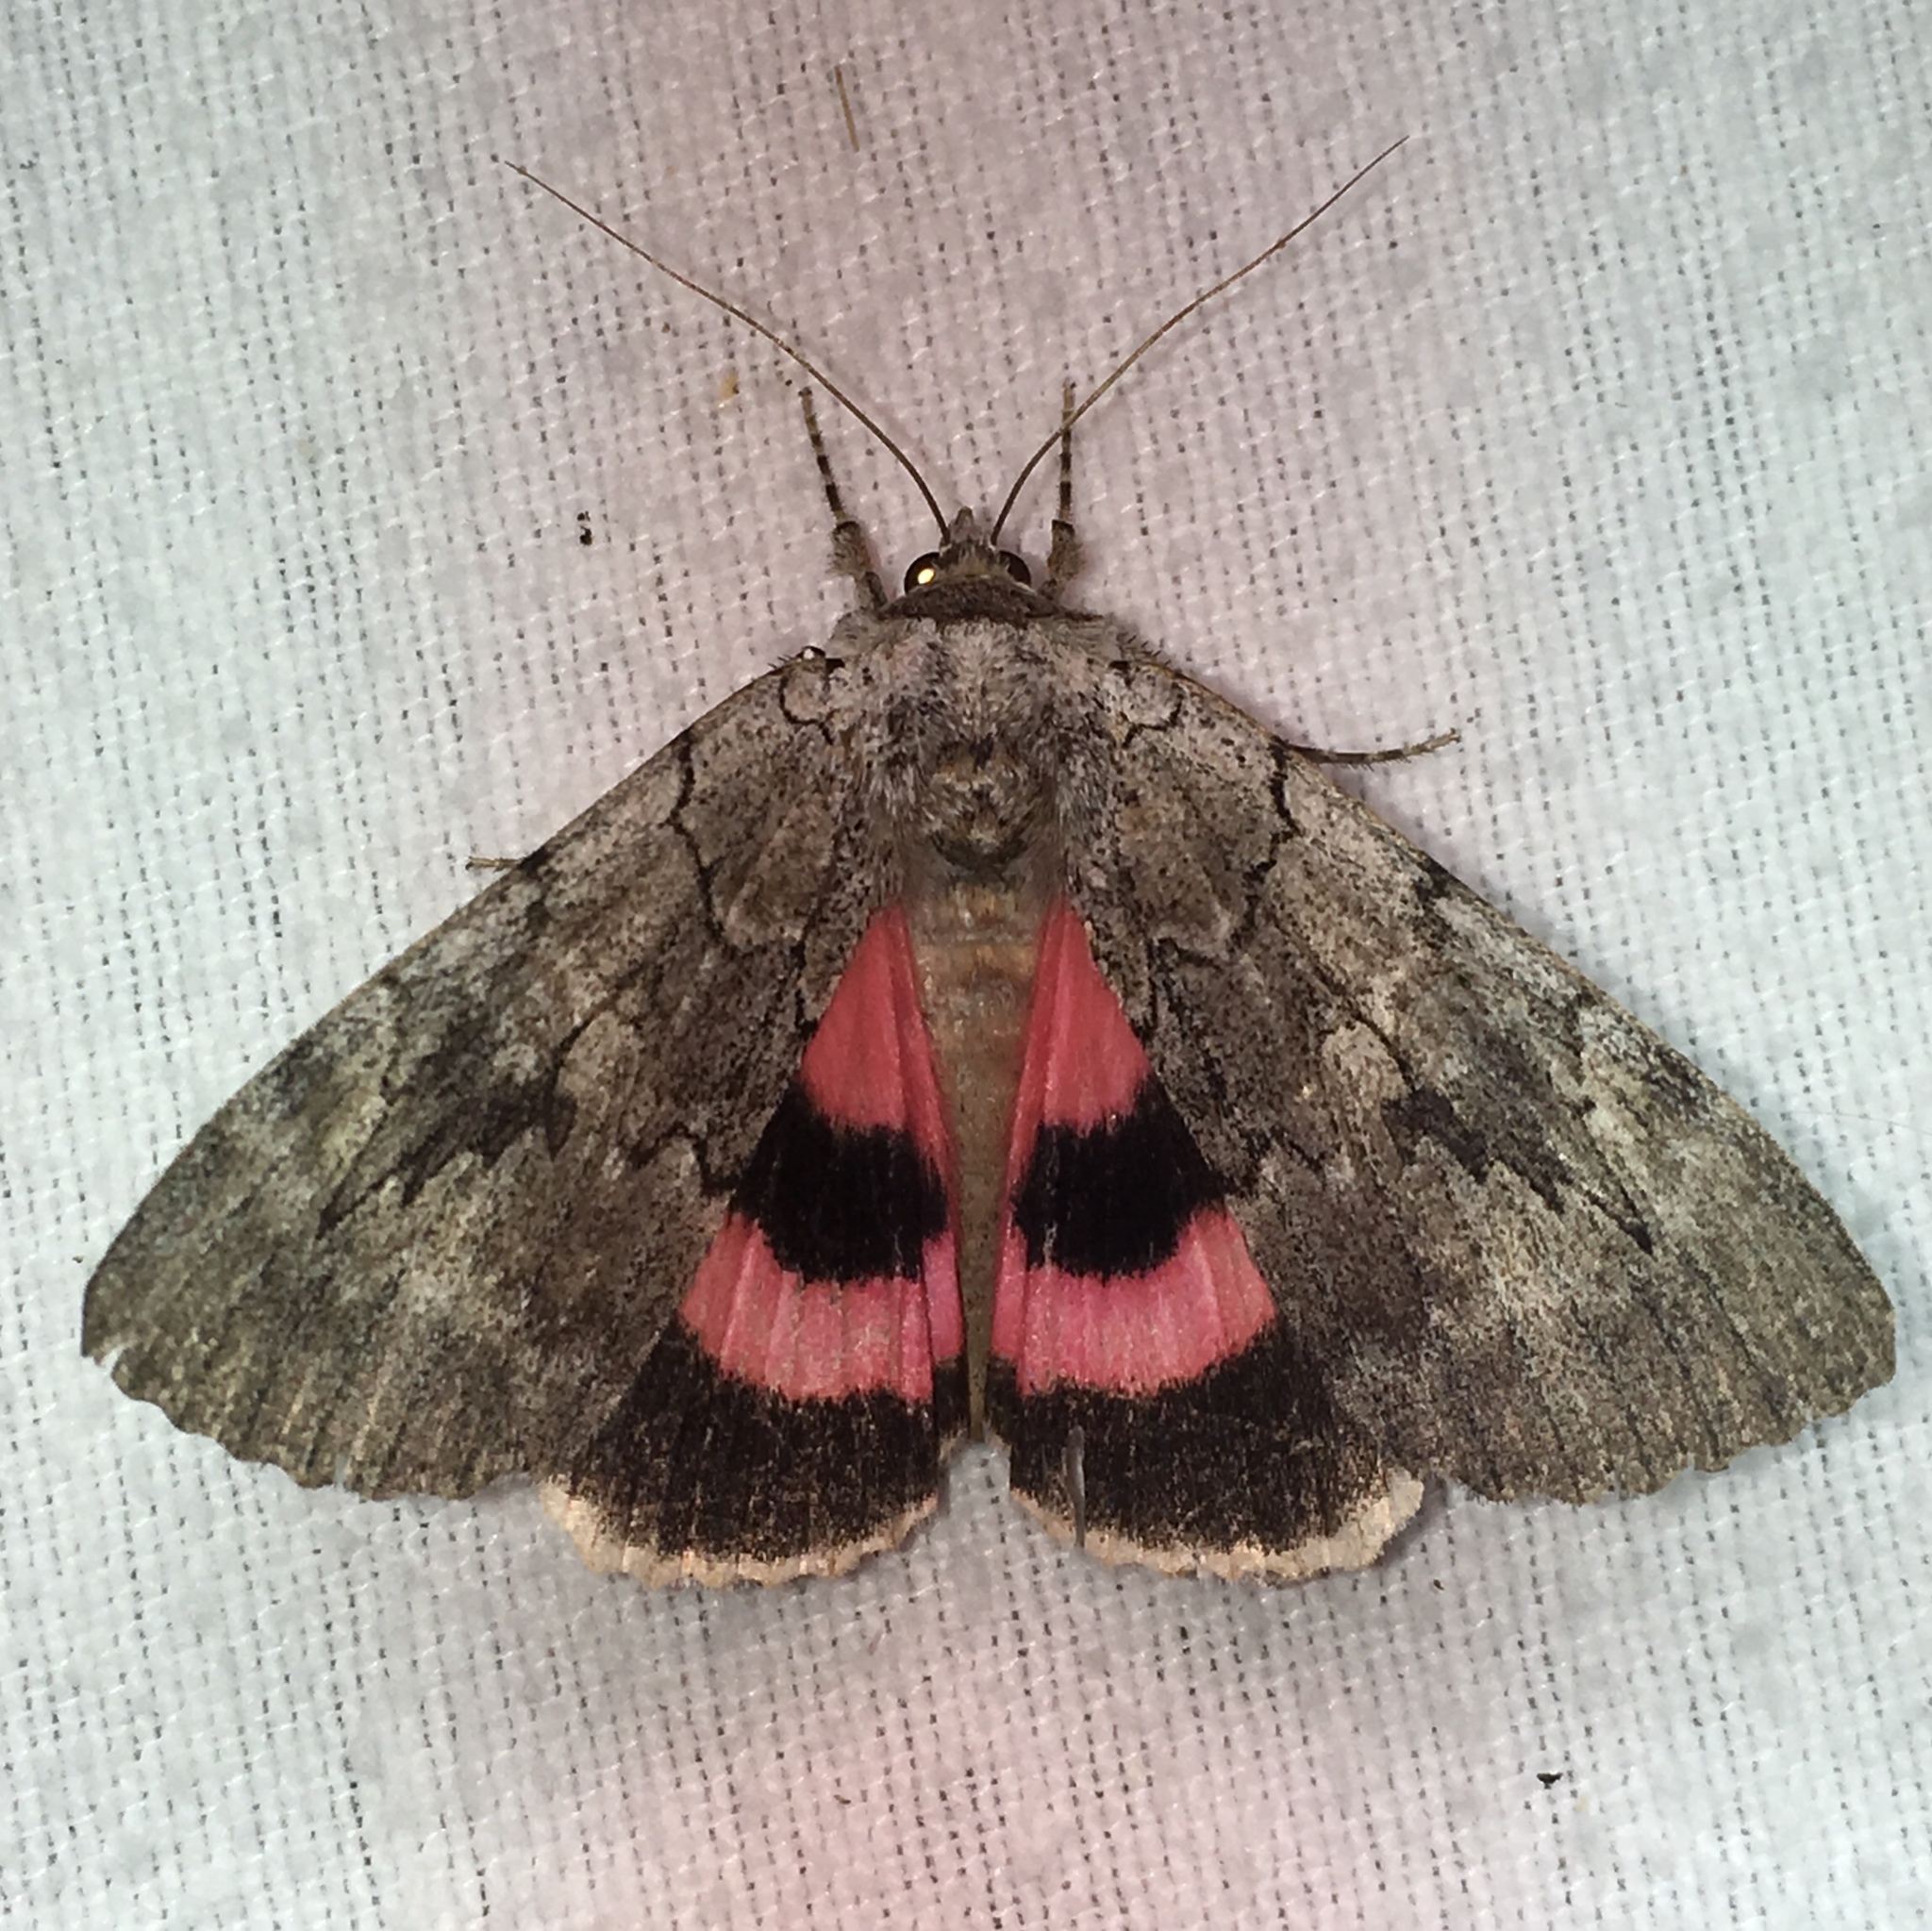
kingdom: Animalia
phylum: Arthropoda
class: Insecta
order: Lepidoptera
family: Erebidae
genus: Catocala
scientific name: Catocala concumbens
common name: Pink underwing
